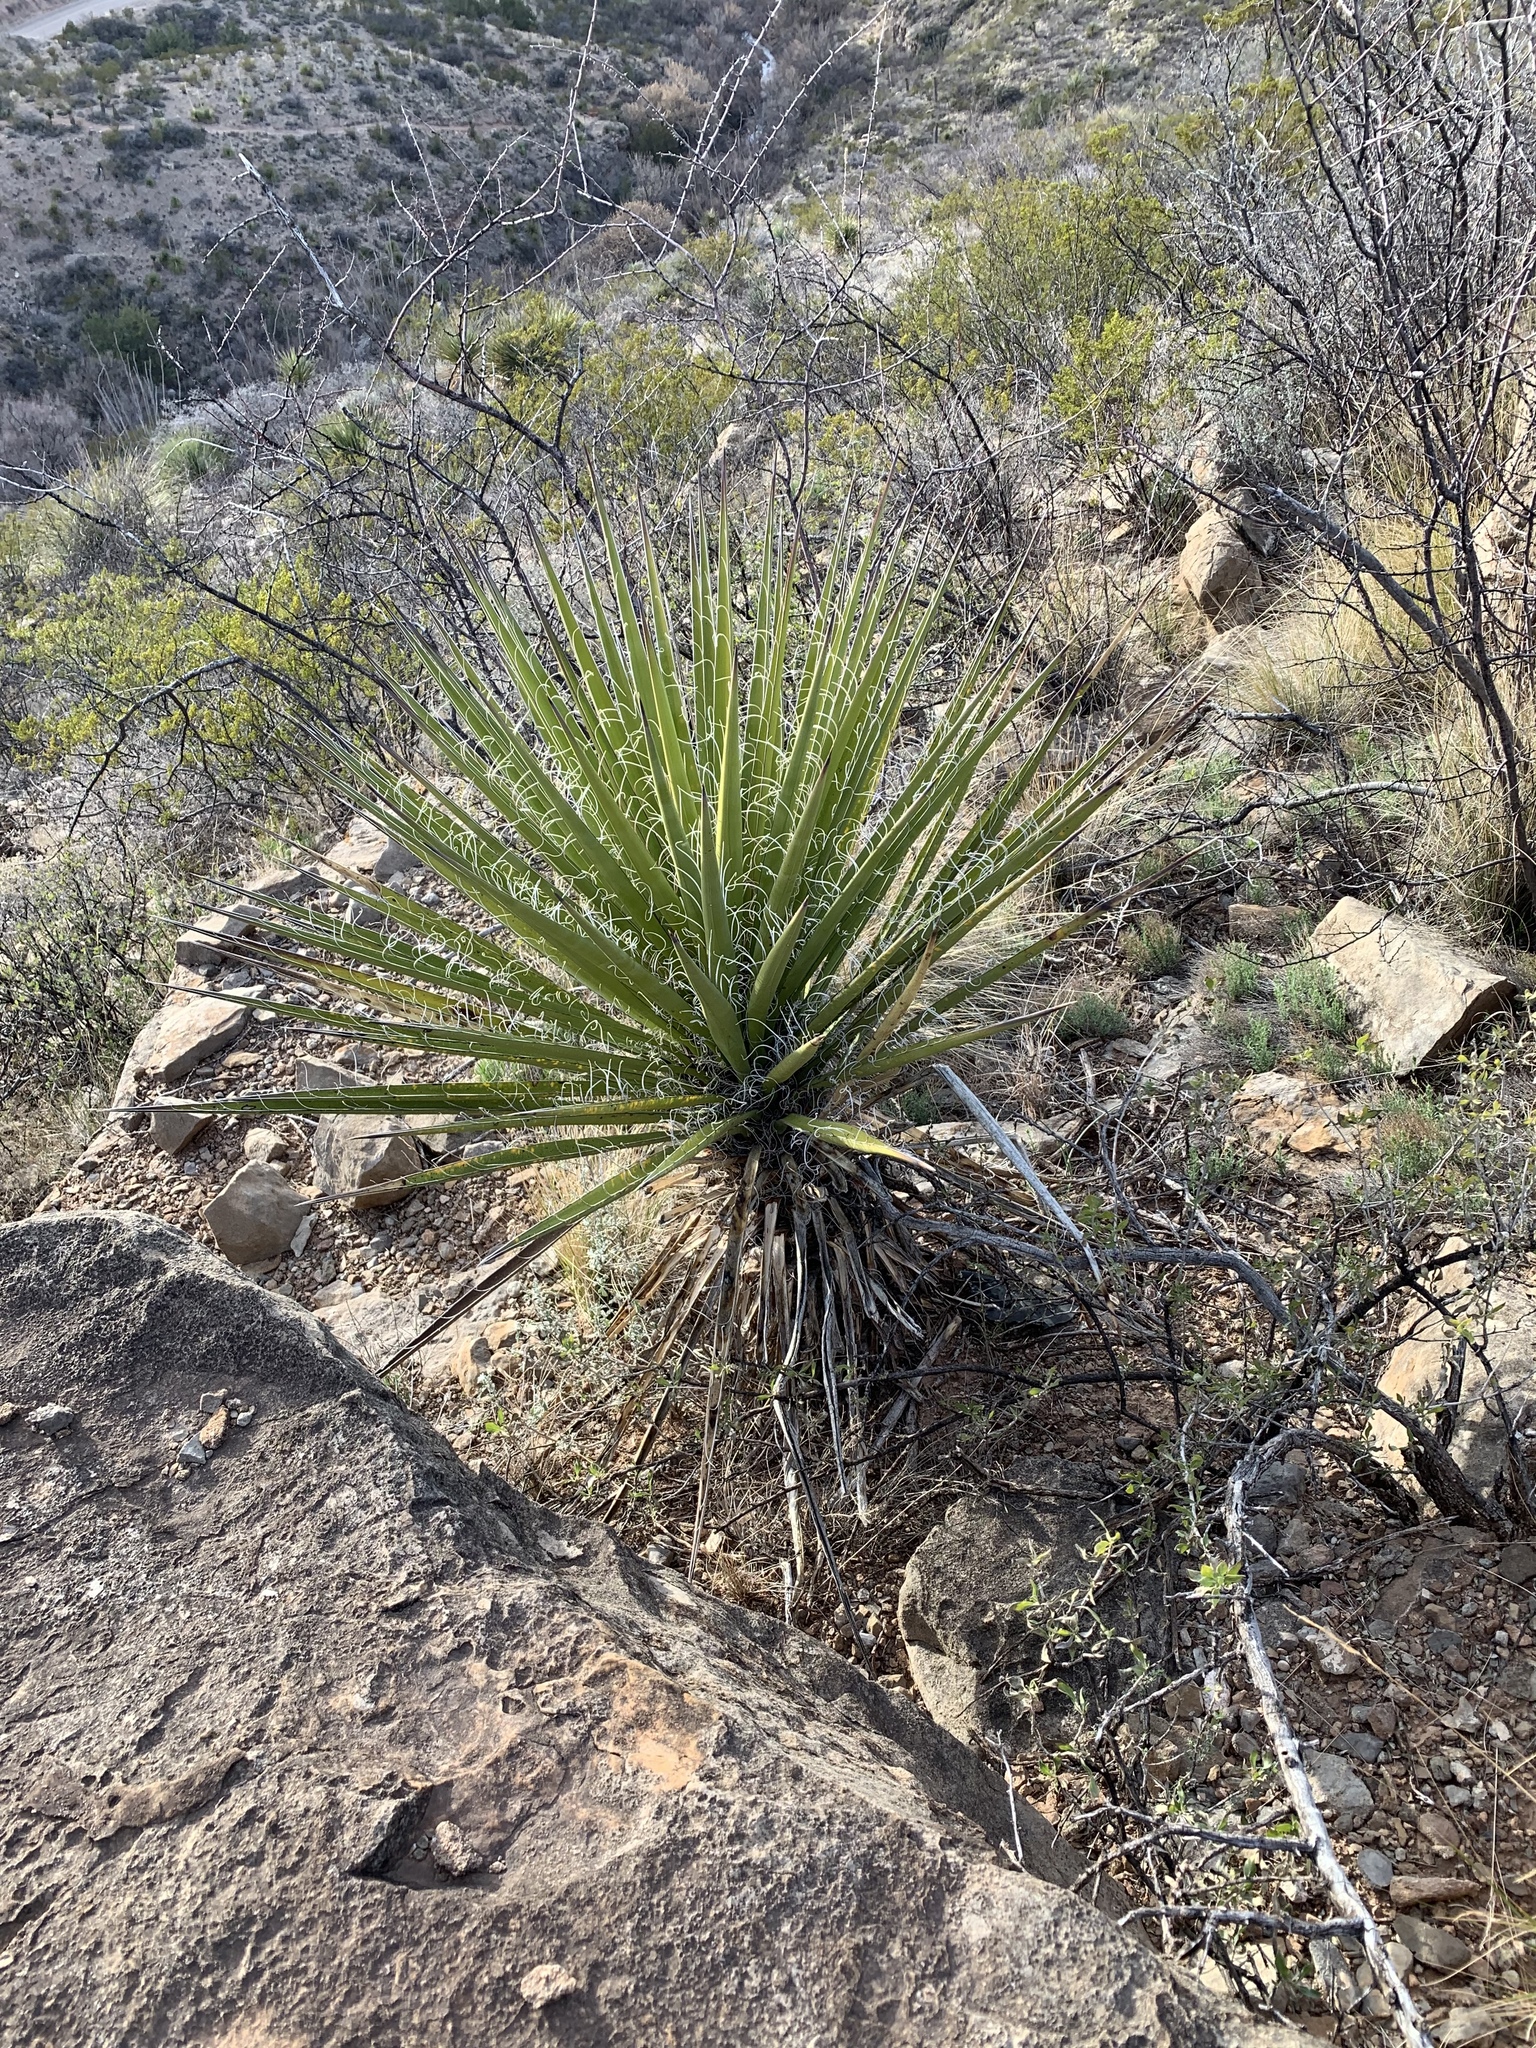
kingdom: Plantae
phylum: Tracheophyta
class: Liliopsida
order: Asparagales
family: Asparagaceae
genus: Yucca
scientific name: Yucca treculiana
